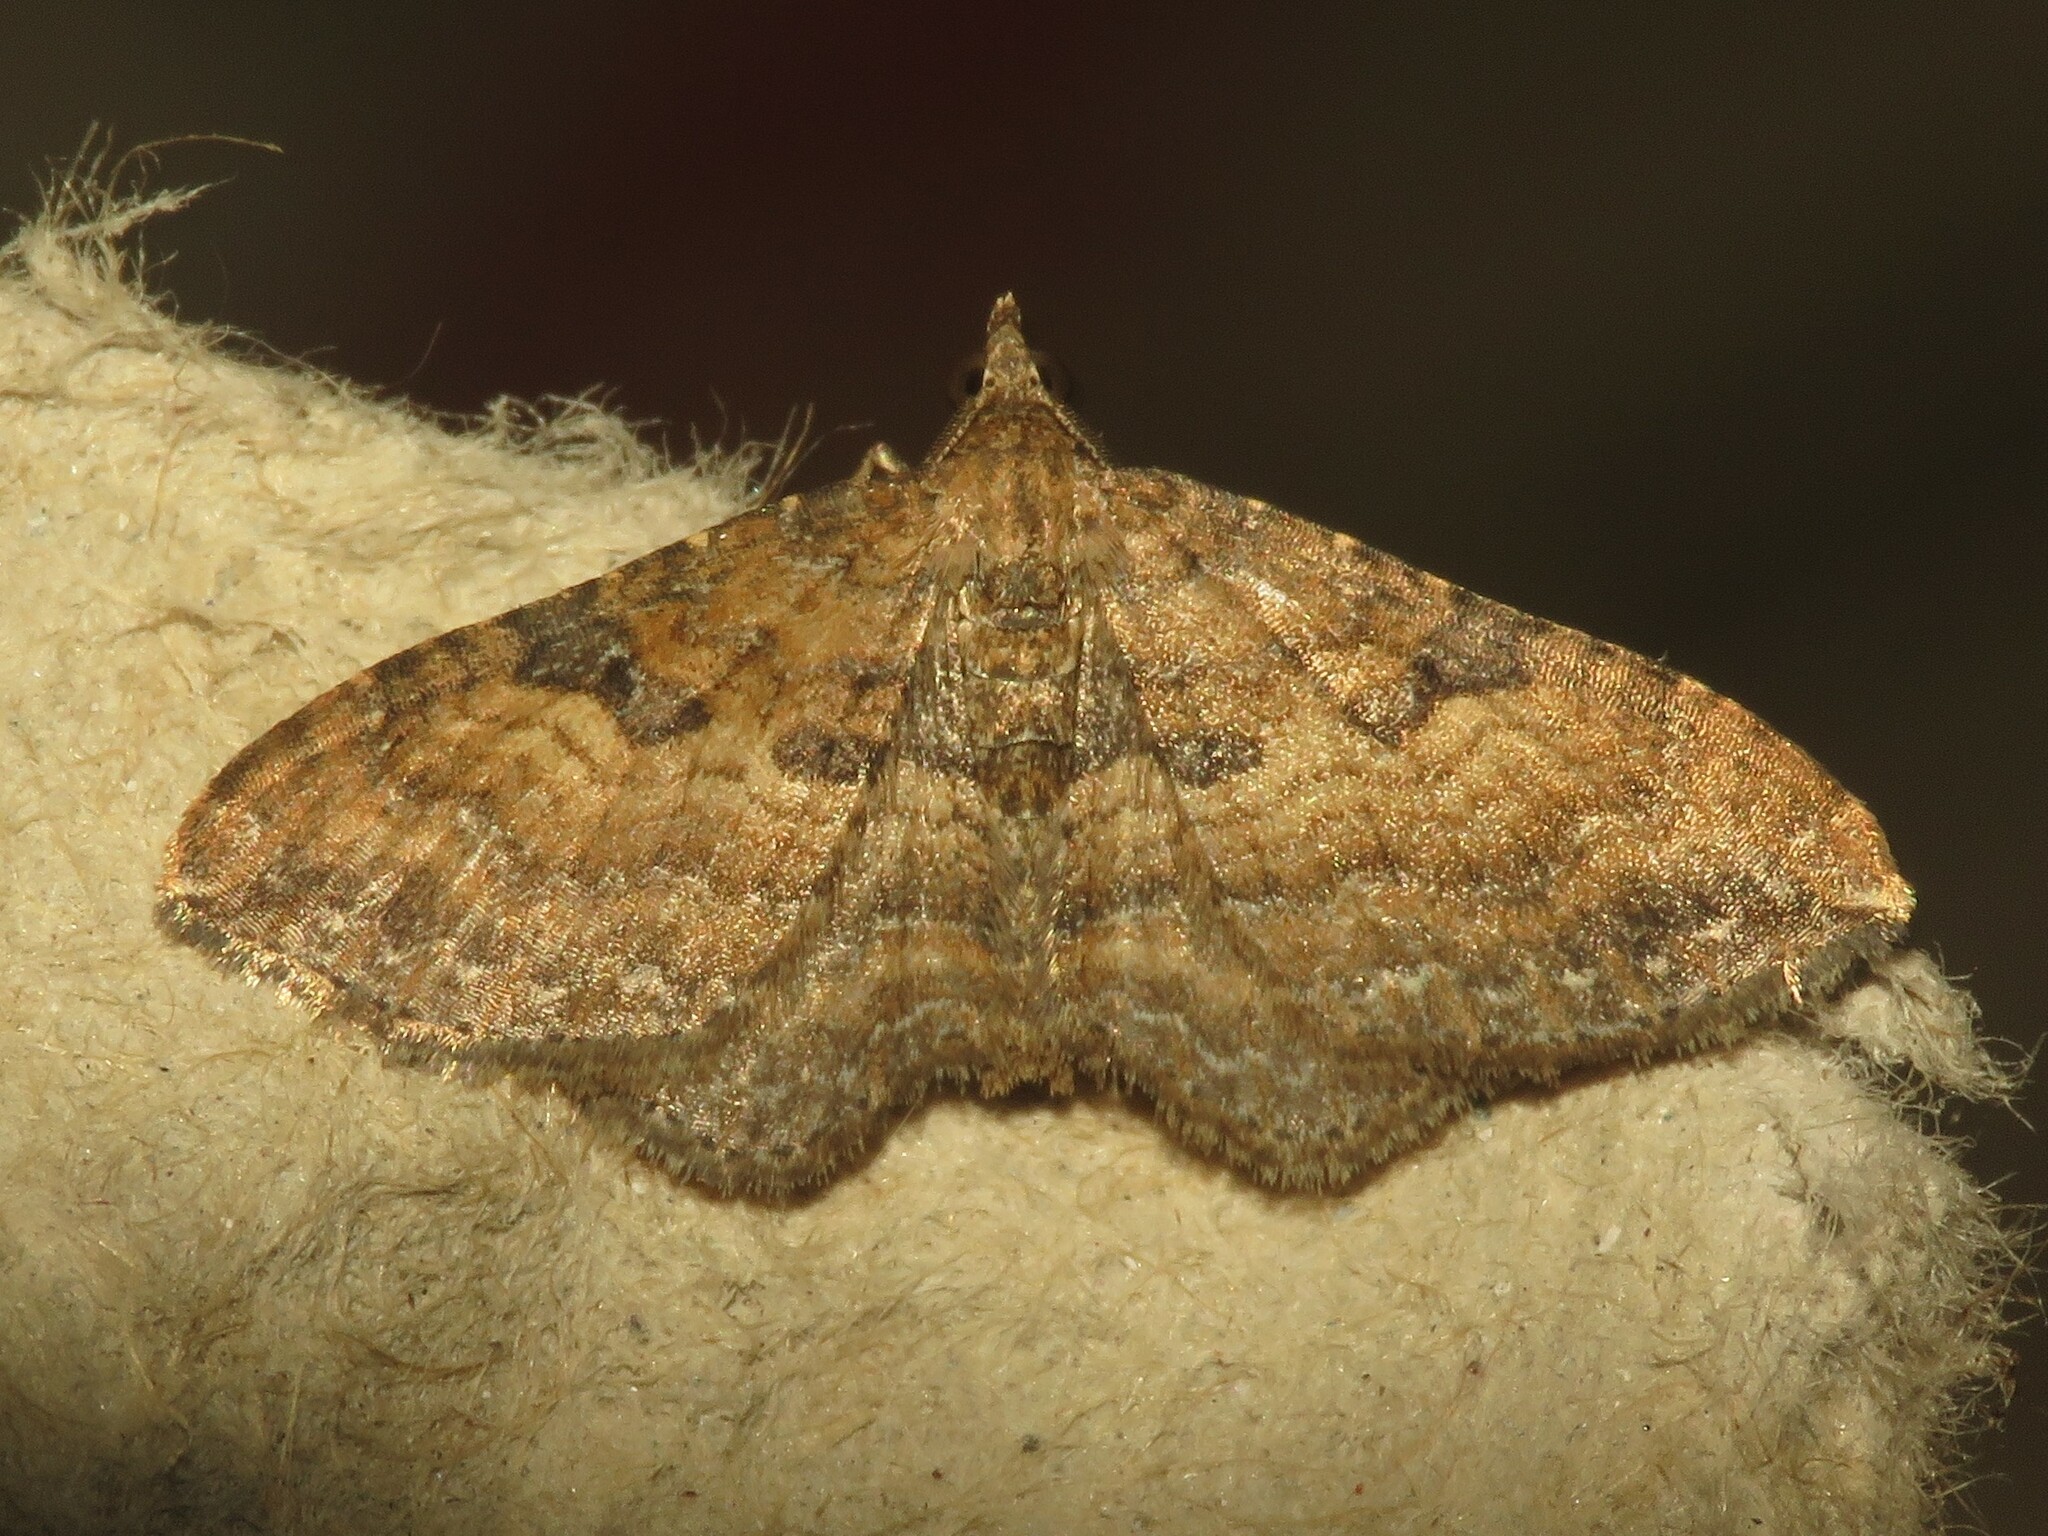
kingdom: Animalia
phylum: Arthropoda
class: Insecta
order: Lepidoptera
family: Geometridae
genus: Orthonama
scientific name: Orthonama obstipata
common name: The gem
